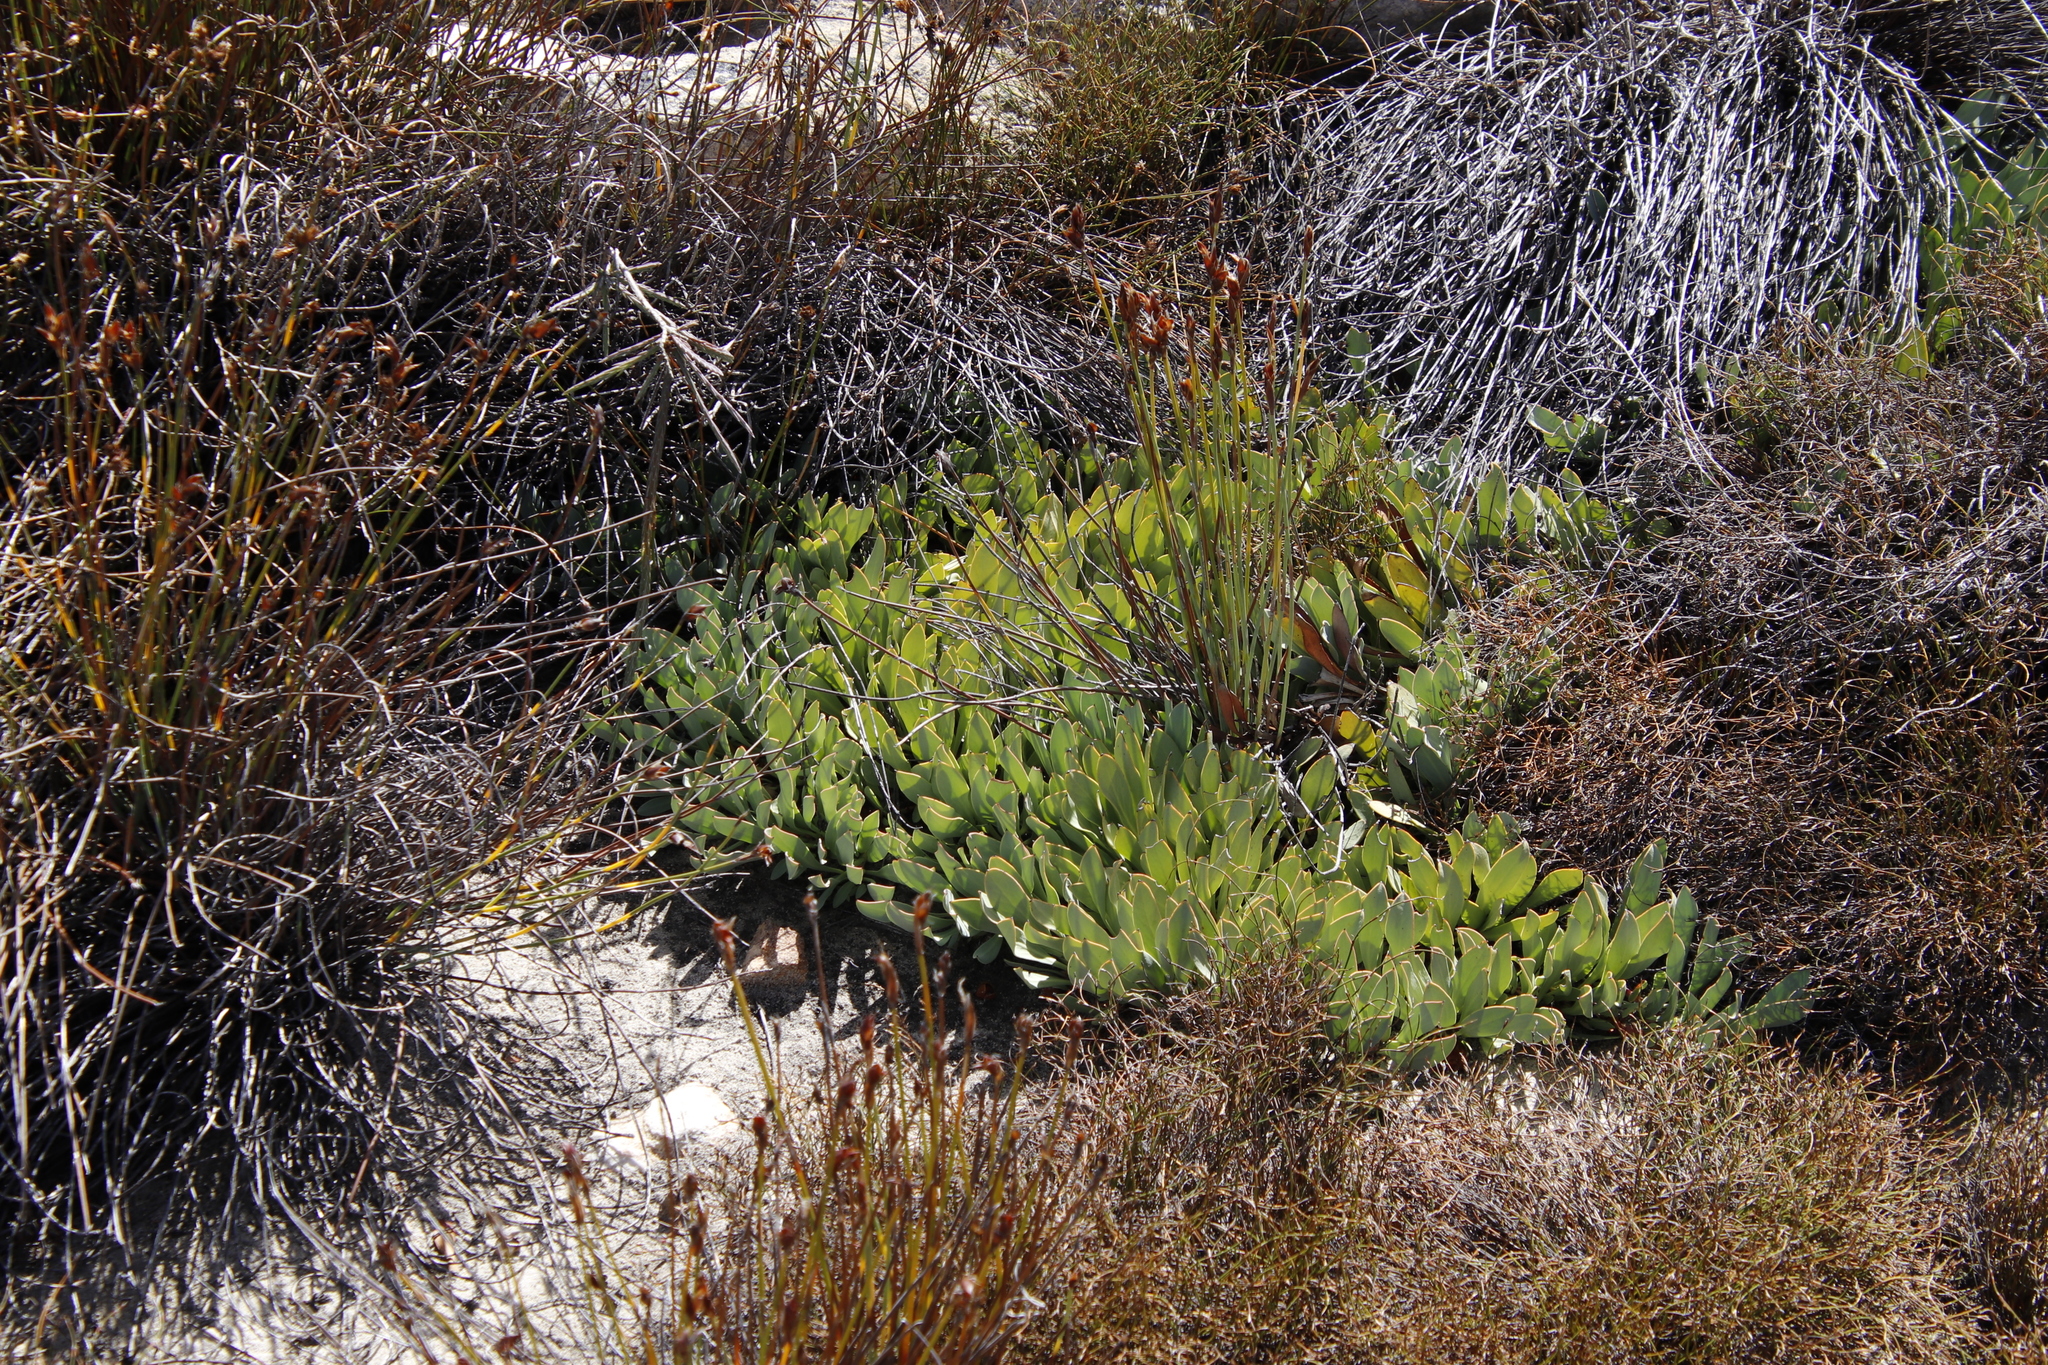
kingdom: Plantae
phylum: Tracheophyta
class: Magnoliopsida
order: Proteales
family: Proteaceae
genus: Protea
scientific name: Protea laevis
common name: Smooth-leaf sugarbush
